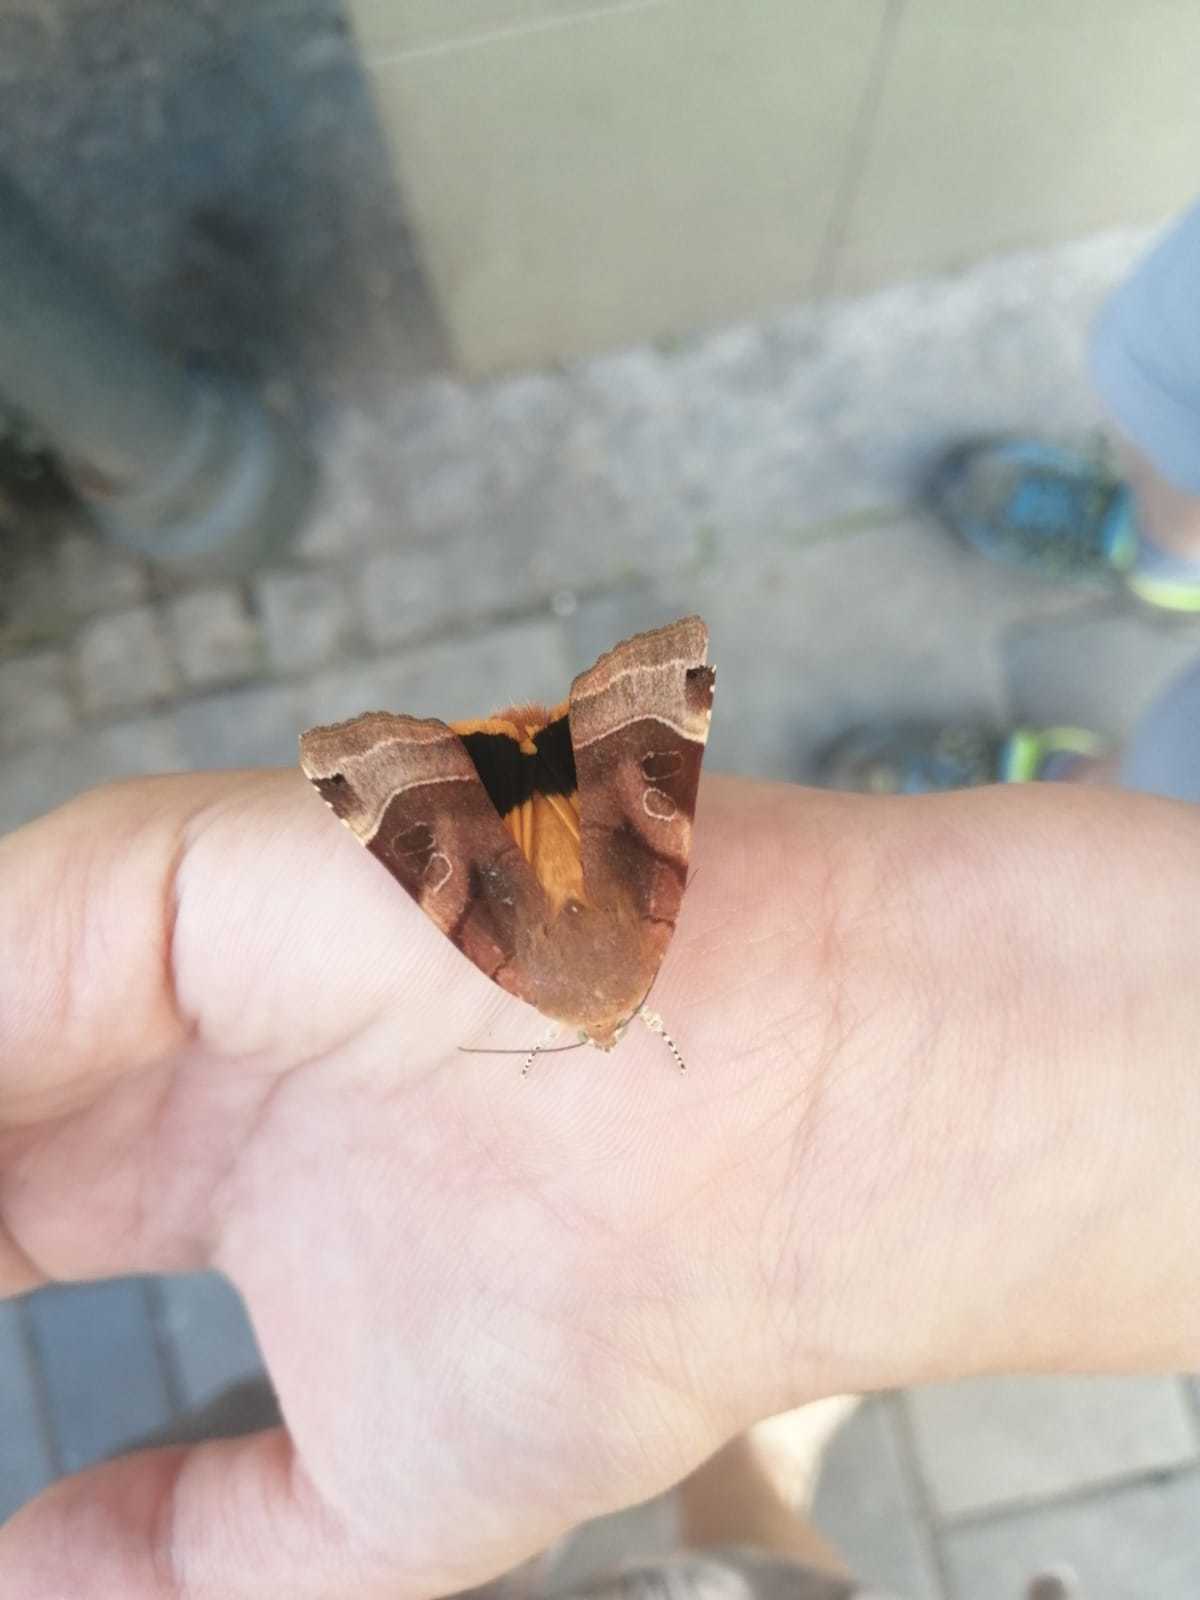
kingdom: Animalia
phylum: Arthropoda
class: Insecta
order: Lepidoptera
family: Noctuidae
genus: Noctua
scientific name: Noctua fimbriata
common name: Broad-bordered yellow underwing
